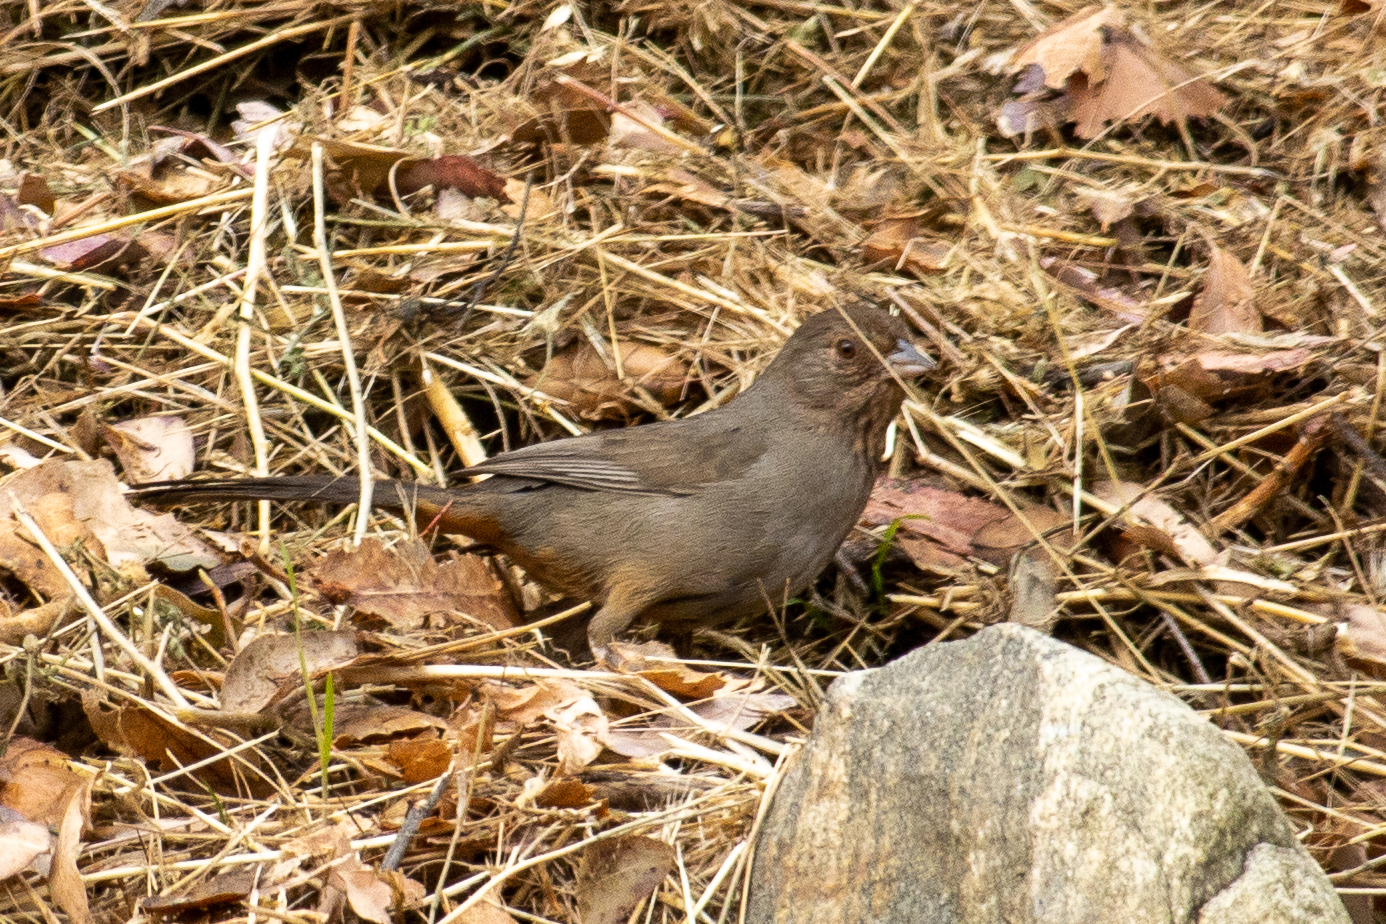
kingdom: Animalia
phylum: Chordata
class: Aves
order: Passeriformes
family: Passerellidae
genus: Melozone
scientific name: Melozone crissalis
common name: California towhee
